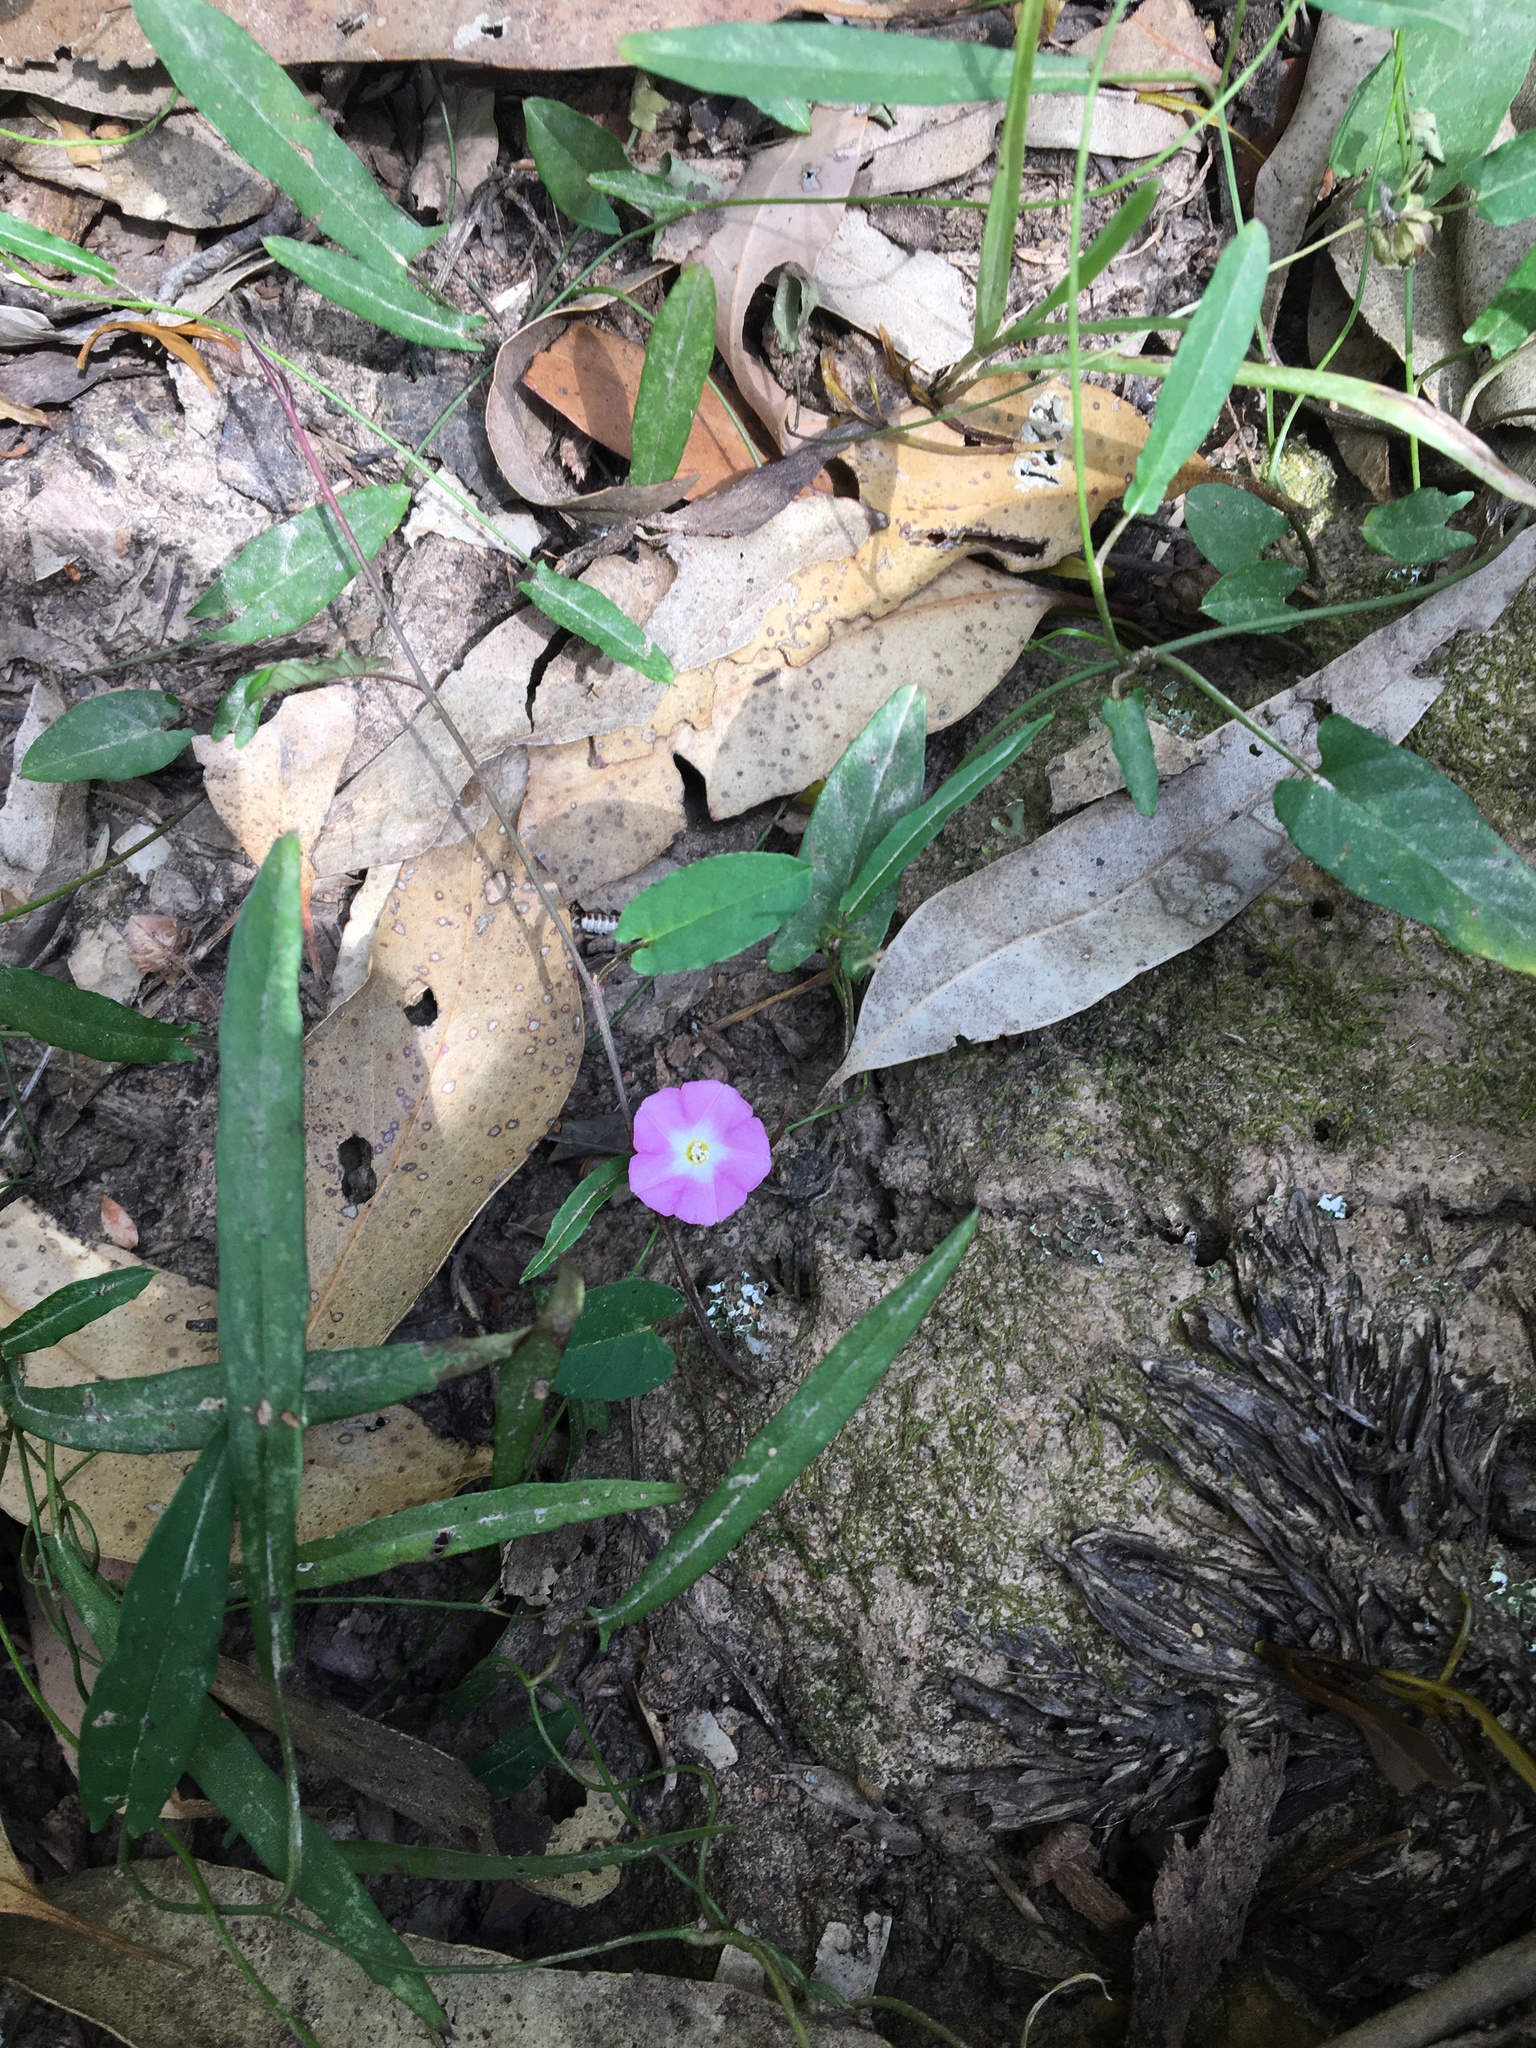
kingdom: Plantae
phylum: Tracheophyta
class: Magnoliopsida
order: Solanales
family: Convolvulaceae
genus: Polymeria
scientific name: Polymeria calycina
